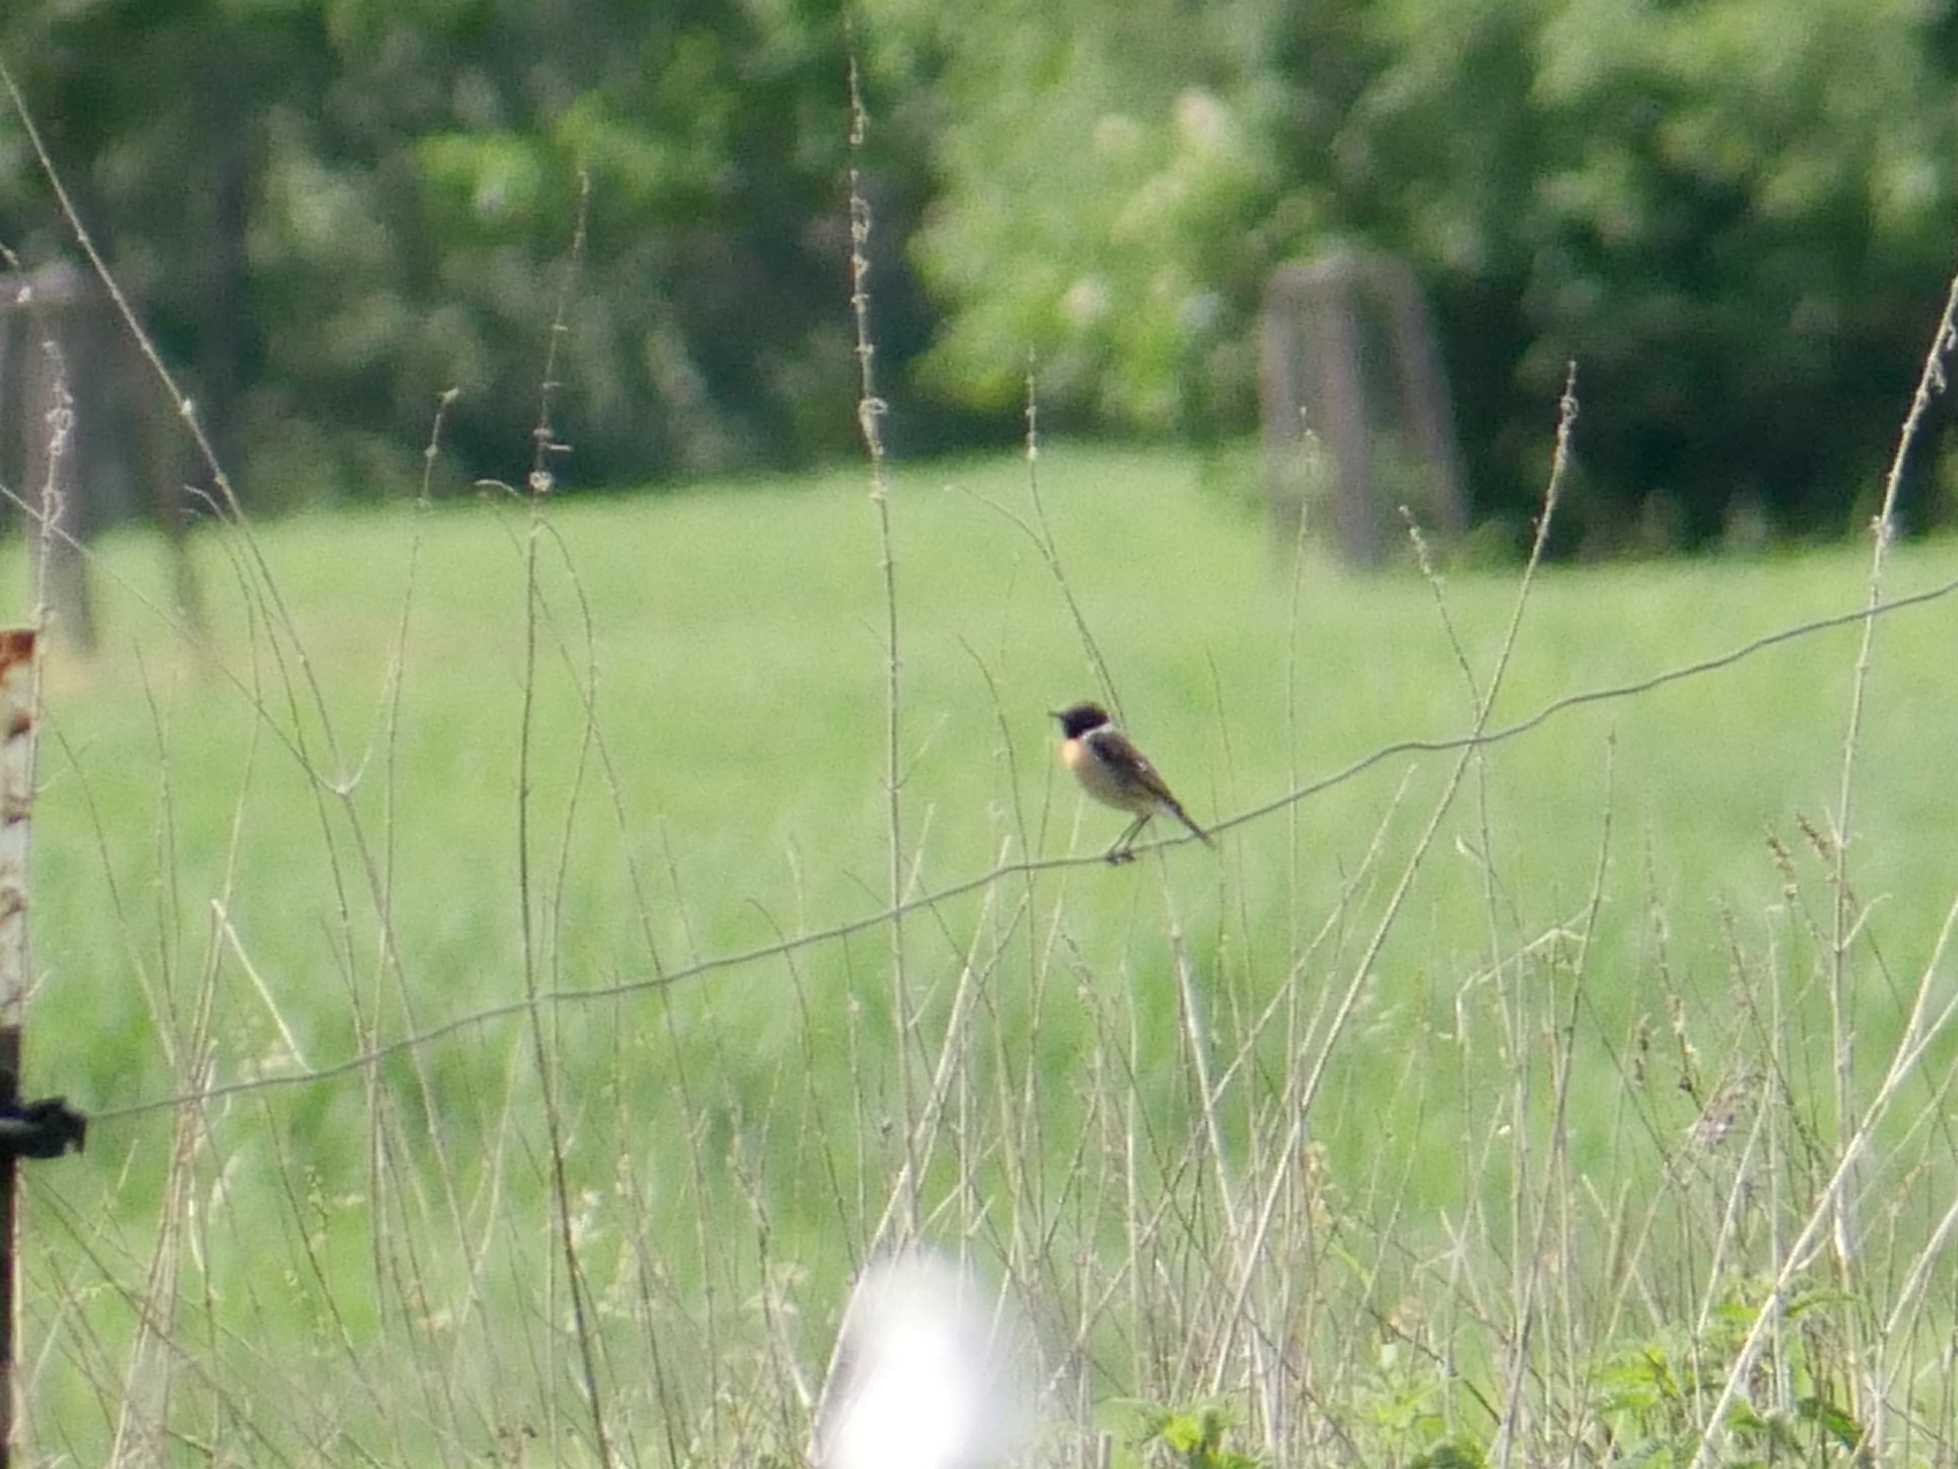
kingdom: Animalia
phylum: Chordata
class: Aves
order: Passeriformes
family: Muscicapidae
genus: Saxicola
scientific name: Saxicola rubicola
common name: European stonechat
